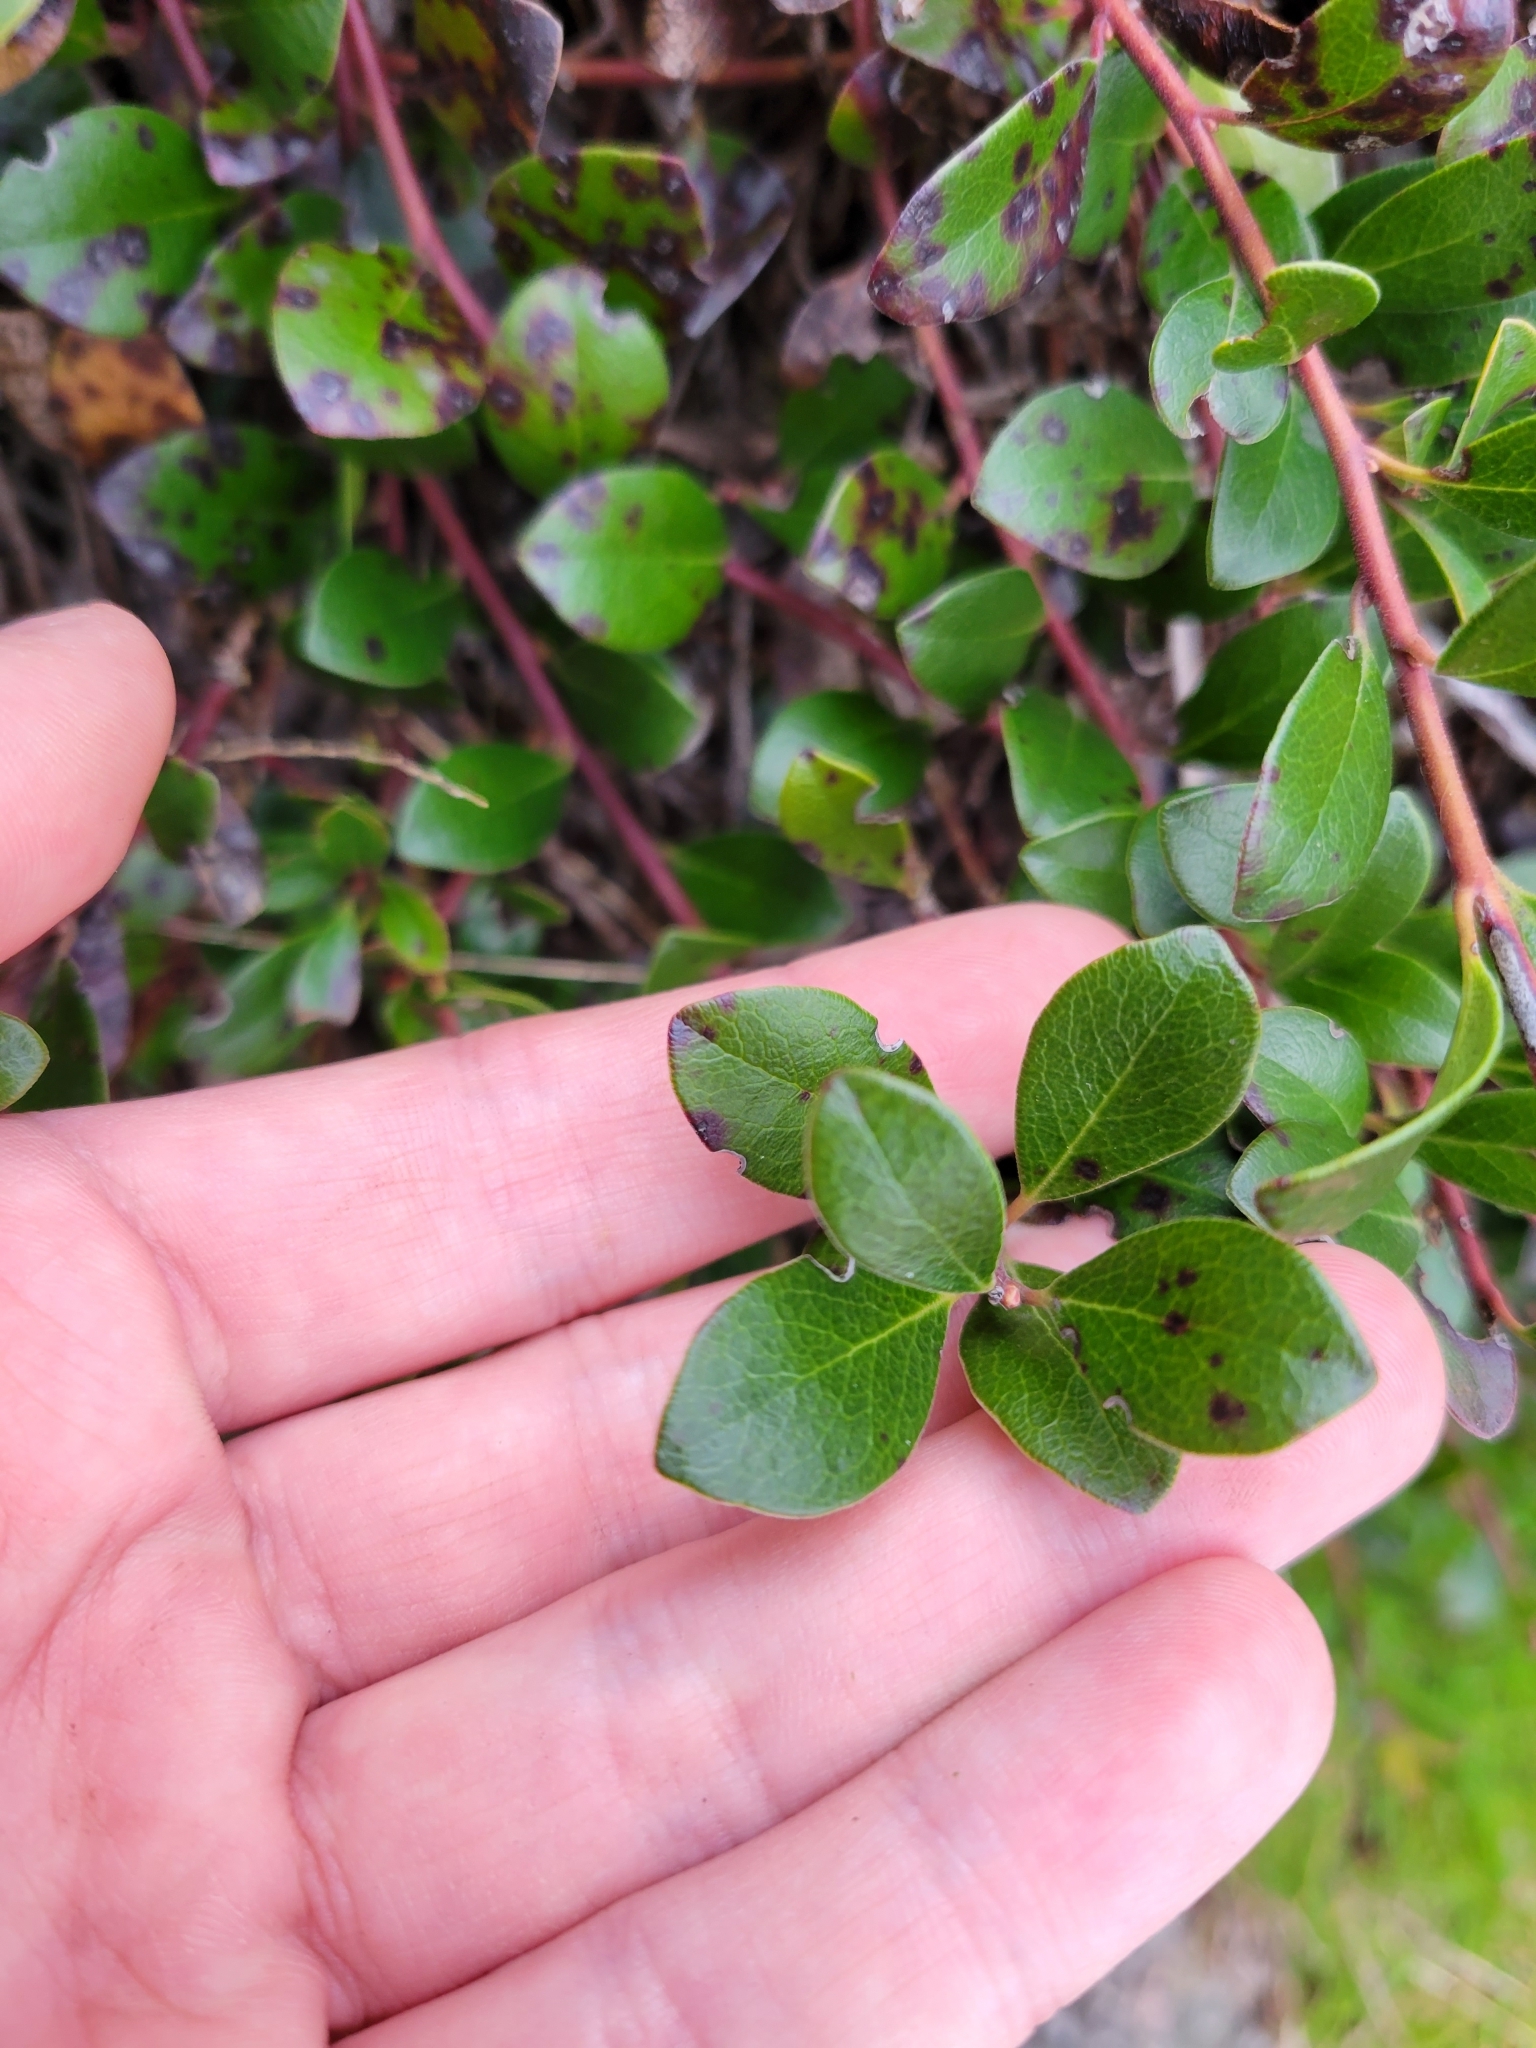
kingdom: Plantae
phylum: Tracheophyta
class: Magnoliopsida
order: Ericales
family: Ericaceae
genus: Arctostaphylos
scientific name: Arctostaphylos uva-ursi
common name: Bearberry
